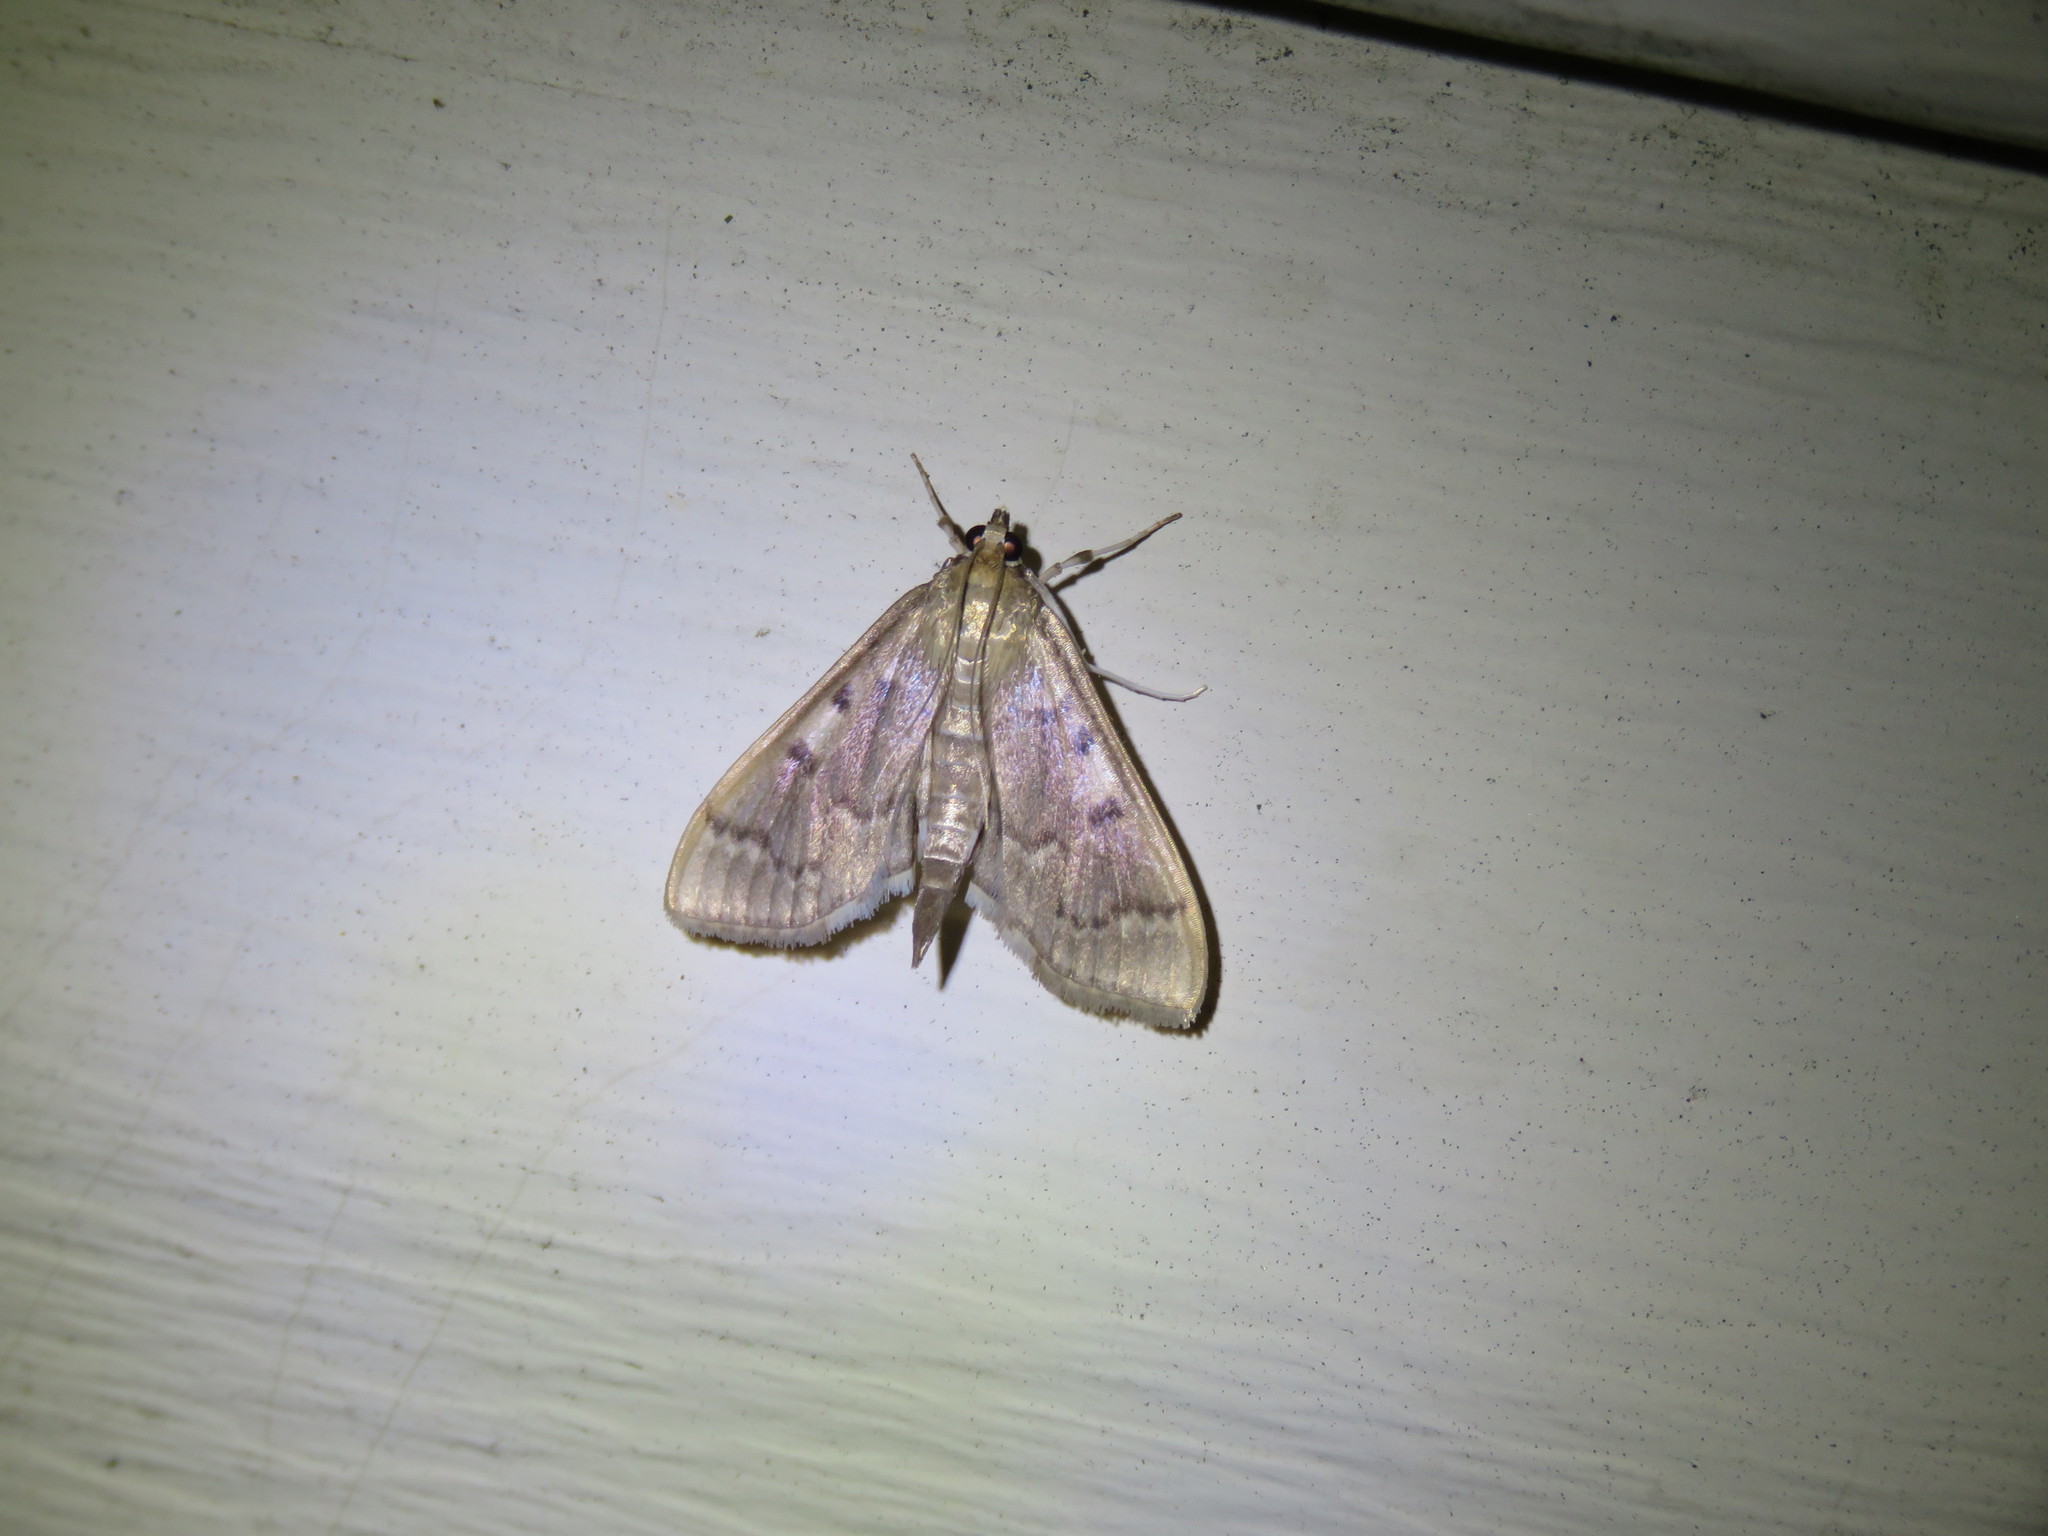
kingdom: Animalia
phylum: Arthropoda
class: Insecta
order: Lepidoptera
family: Crambidae
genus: Herpetogramma
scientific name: Herpetogramma aeglealis
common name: Serpentine webworm moth
